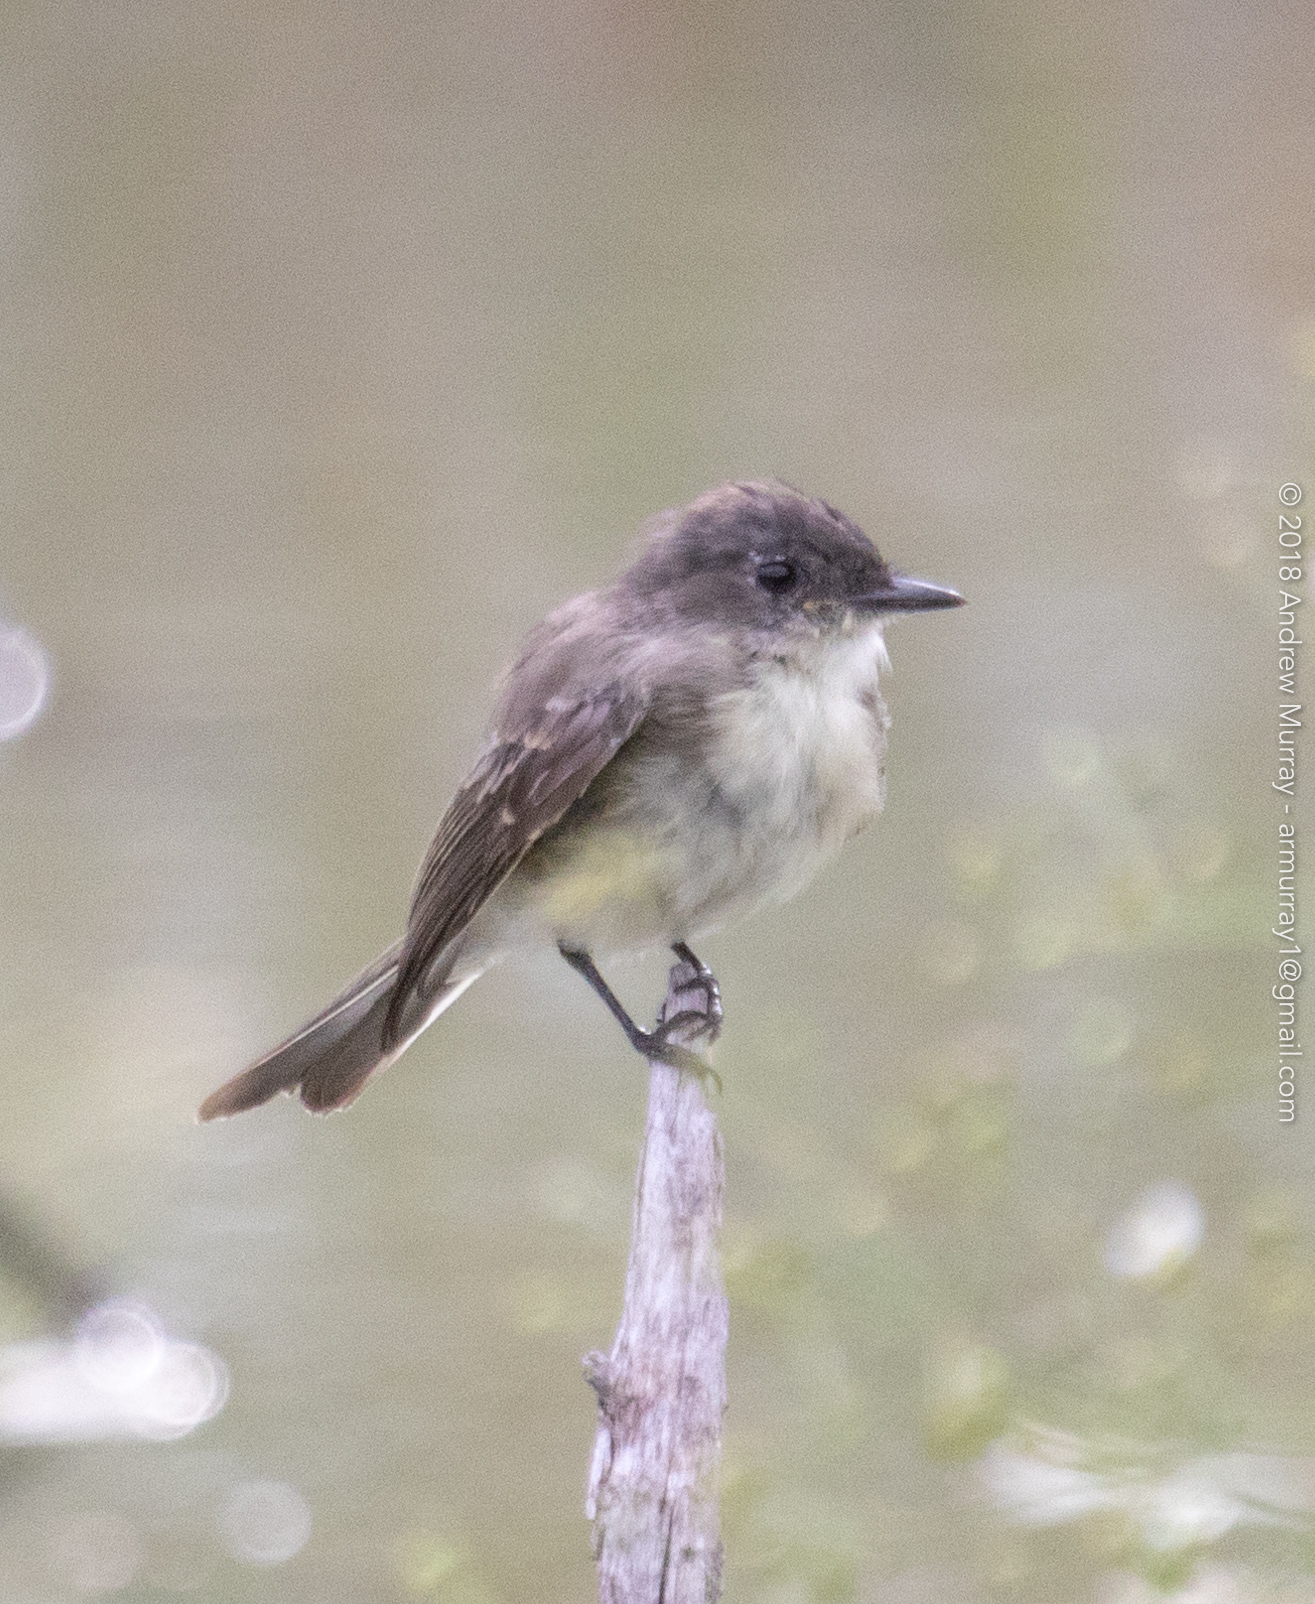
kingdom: Animalia
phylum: Chordata
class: Aves
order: Passeriformes
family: Tyrannidae
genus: Sayornis
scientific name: Sayornis phoebe
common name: Eastern phoebe
